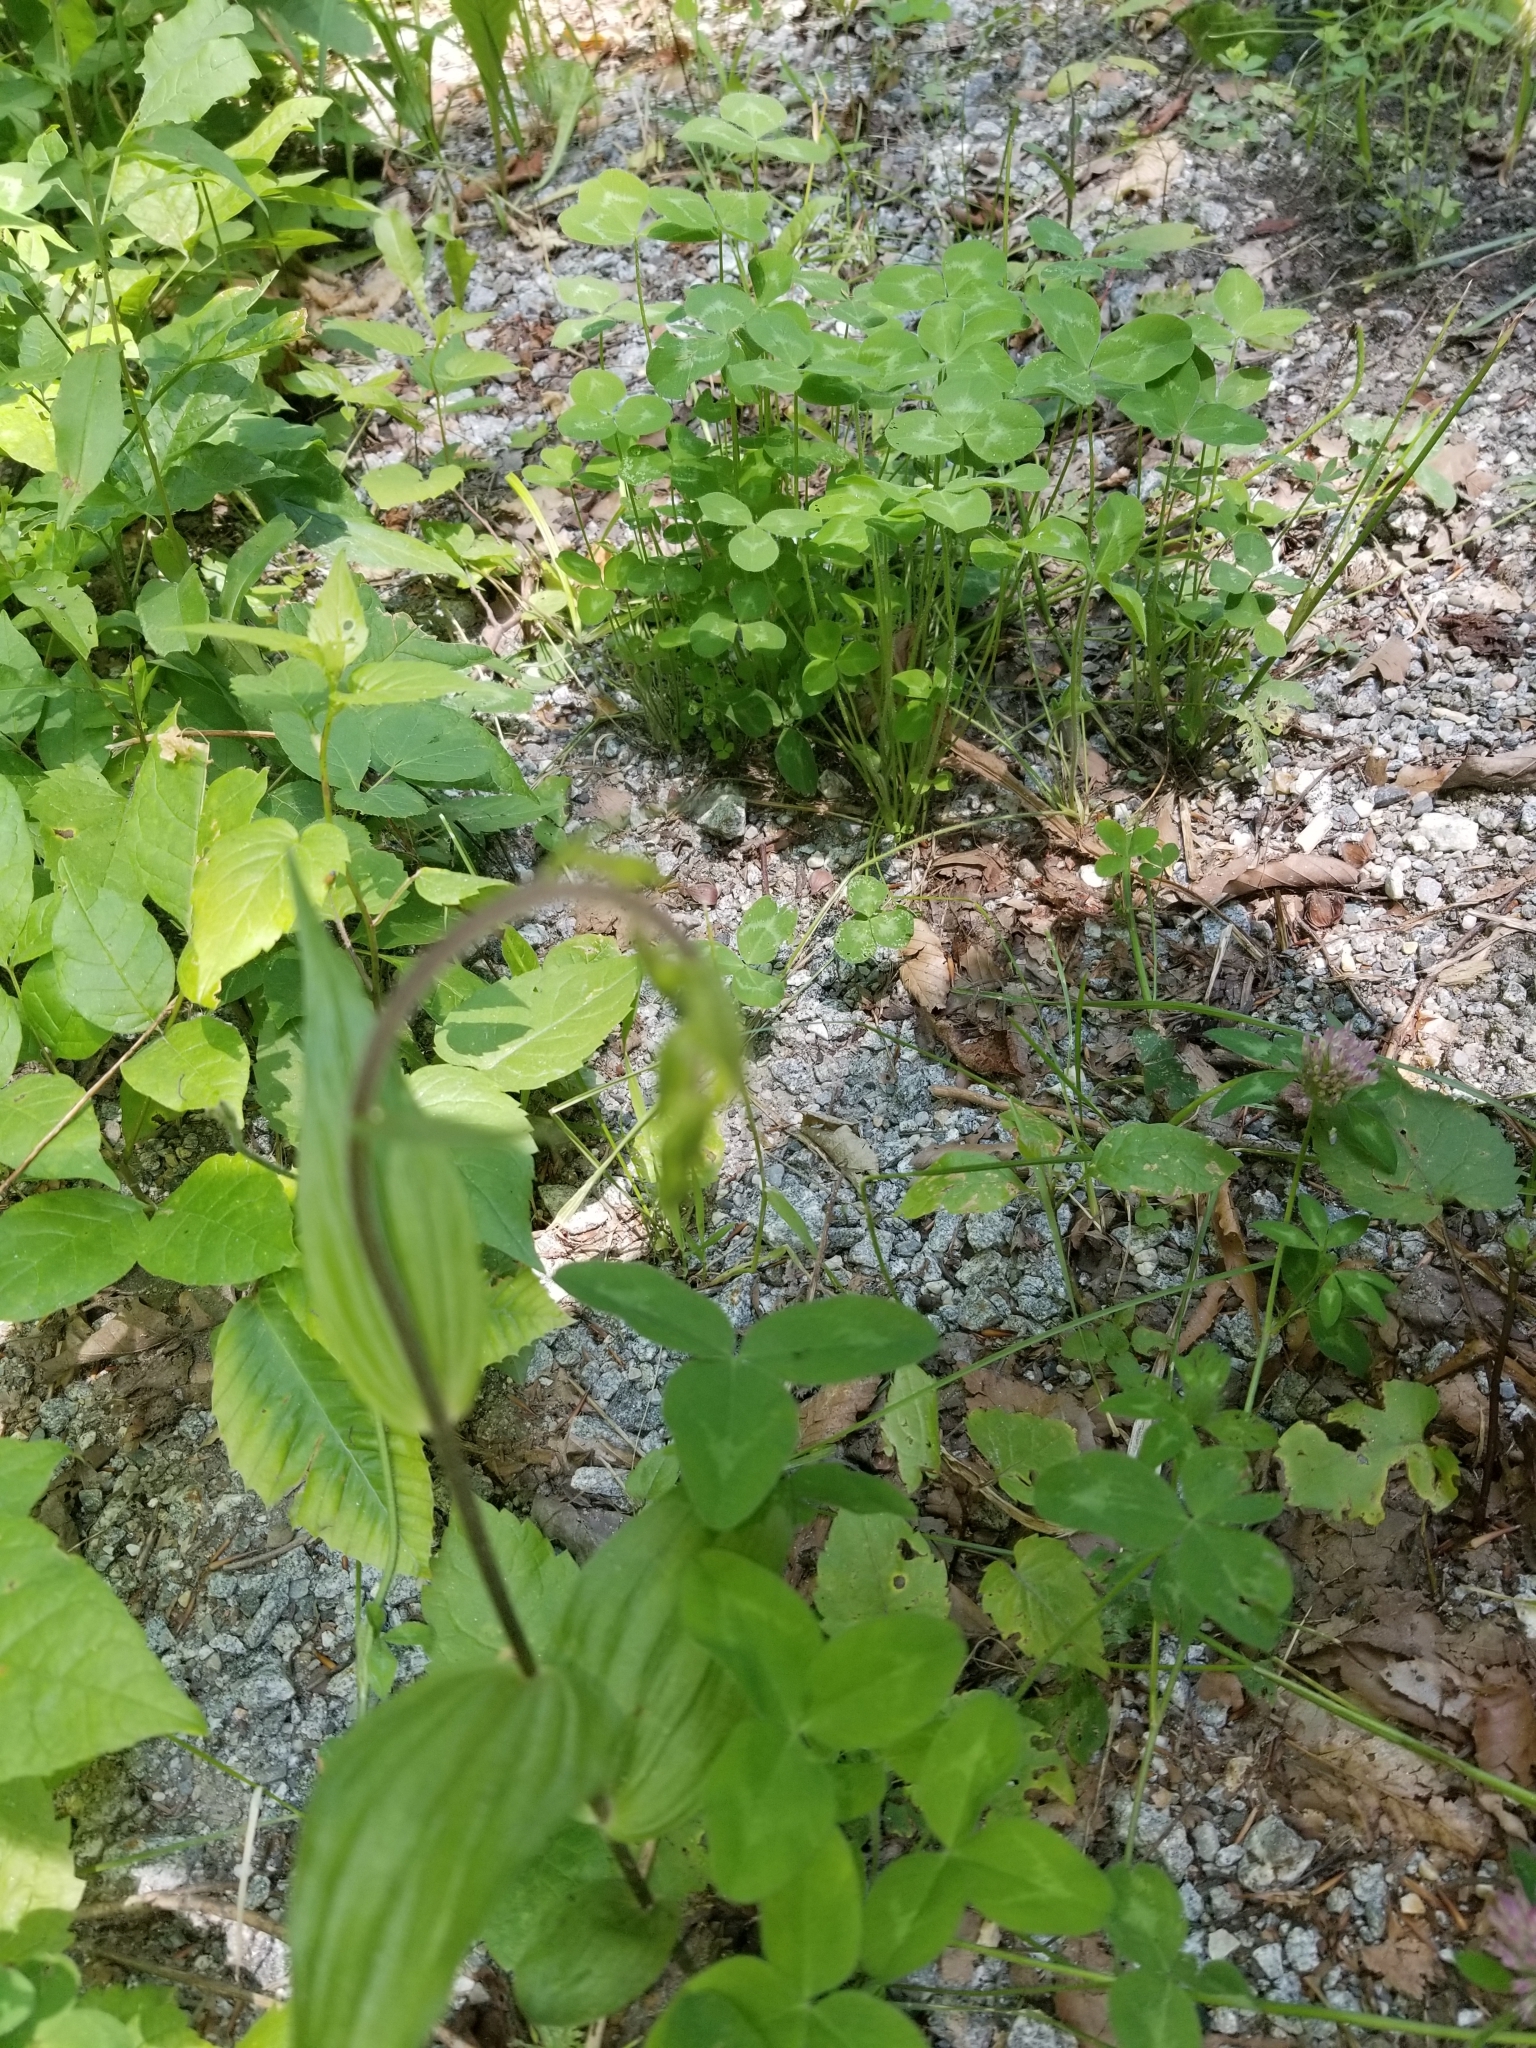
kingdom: Plantae
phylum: Tracheophyta
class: Liliopsida
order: Asparagales
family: Orchidaceae
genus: Epipactis
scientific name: Epipactis helleborine
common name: Broad-leaved helleborine
